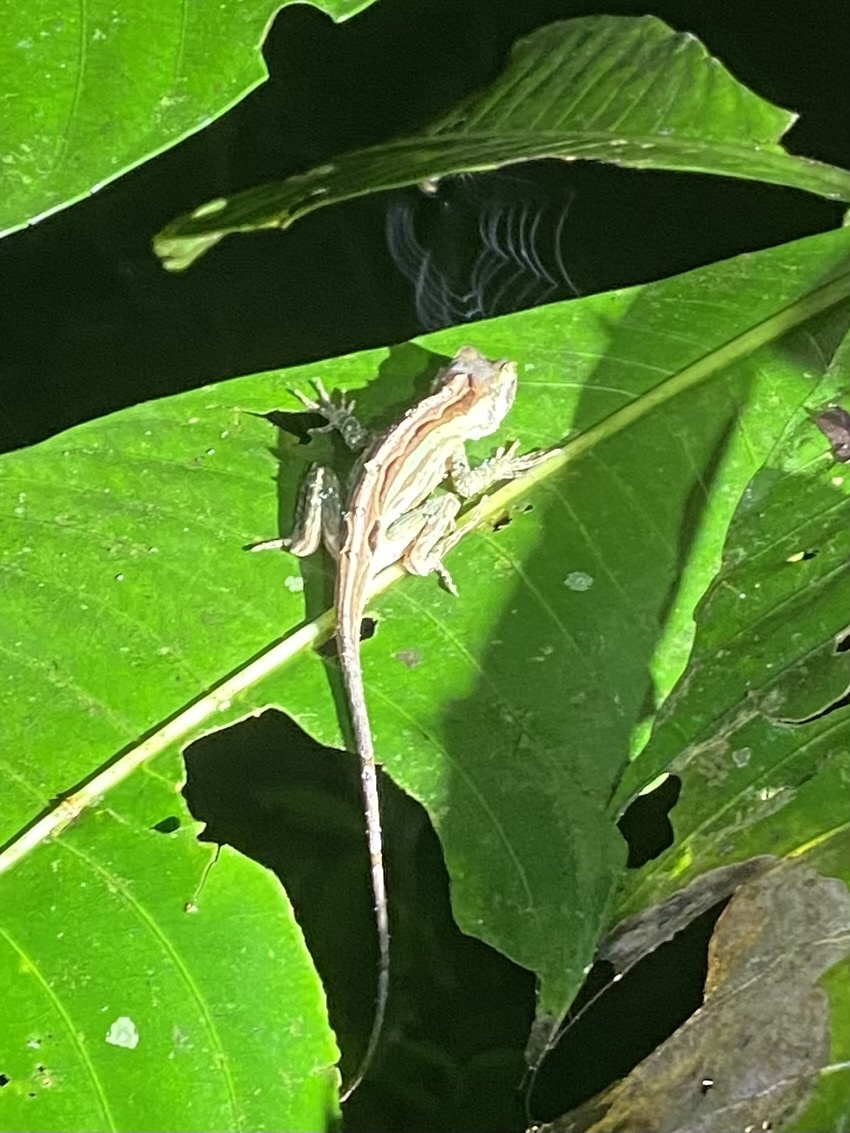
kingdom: Animalia
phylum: Chordata
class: Squamata
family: Dactyloidae
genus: Anolis
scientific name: Anolis lemurinus
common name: Ghost anole
